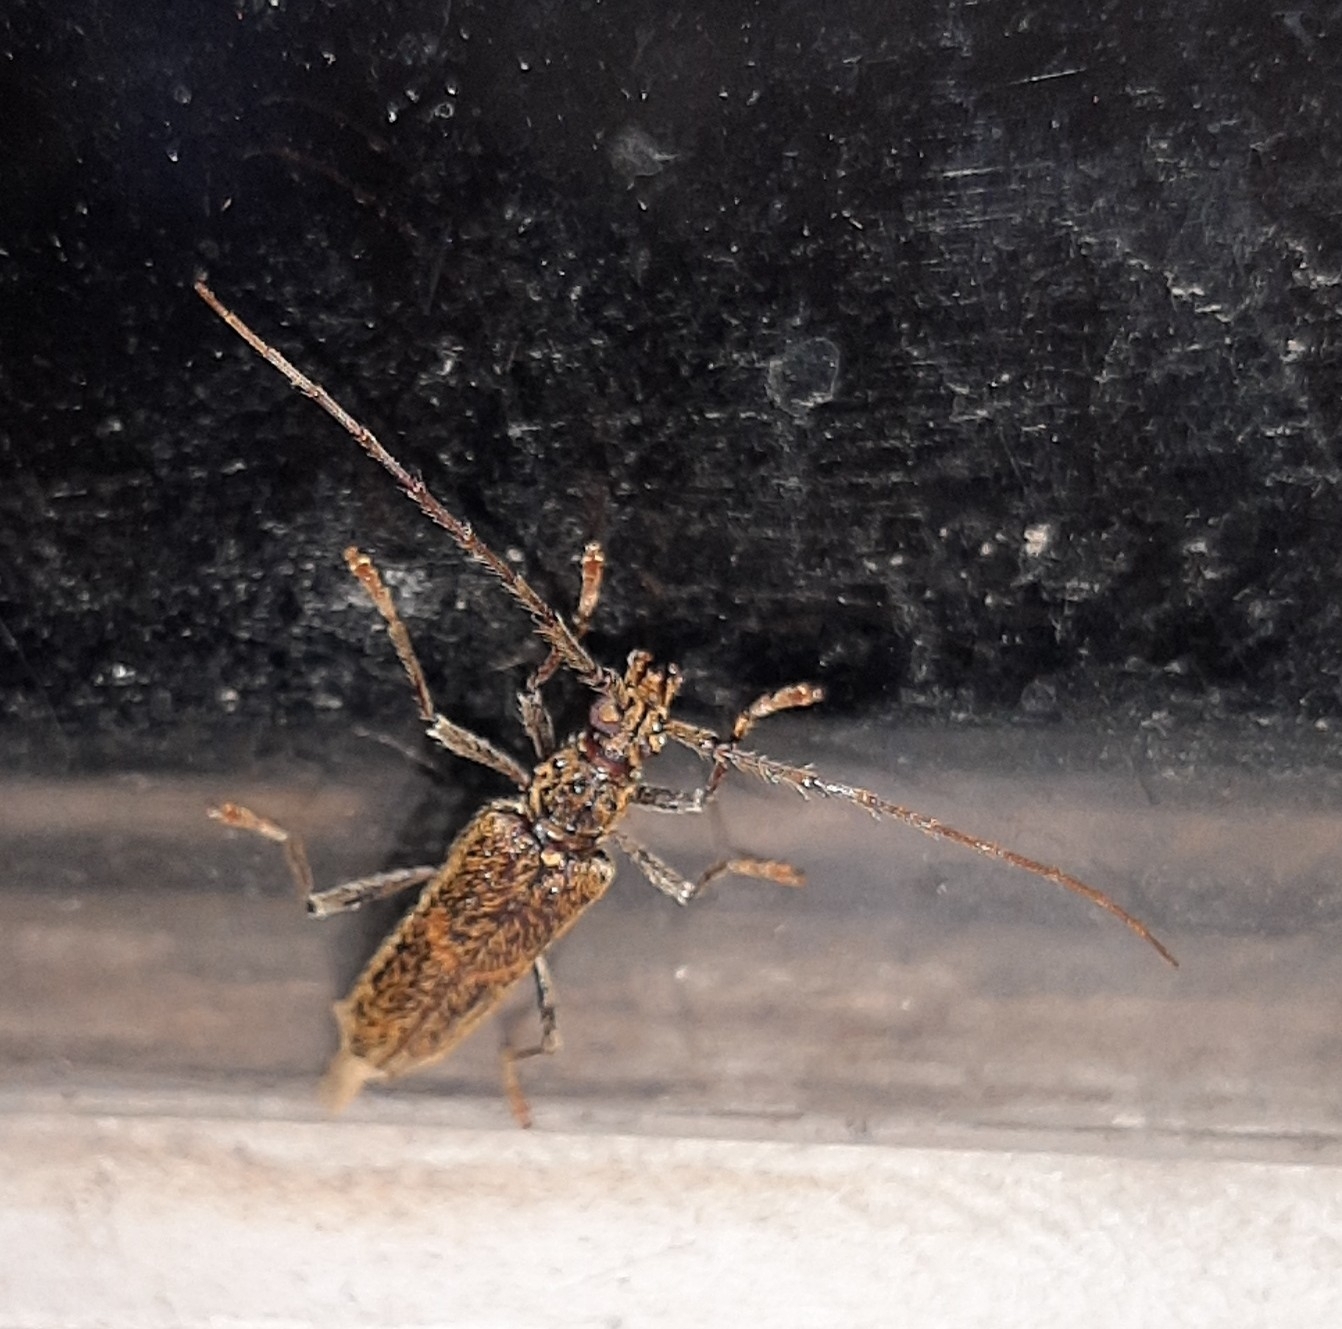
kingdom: Animalia
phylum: Arthropoda
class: Insecta
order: Coleoptera
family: Cerambycidae
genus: Eurysthea
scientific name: Eurysthea cribripennis
